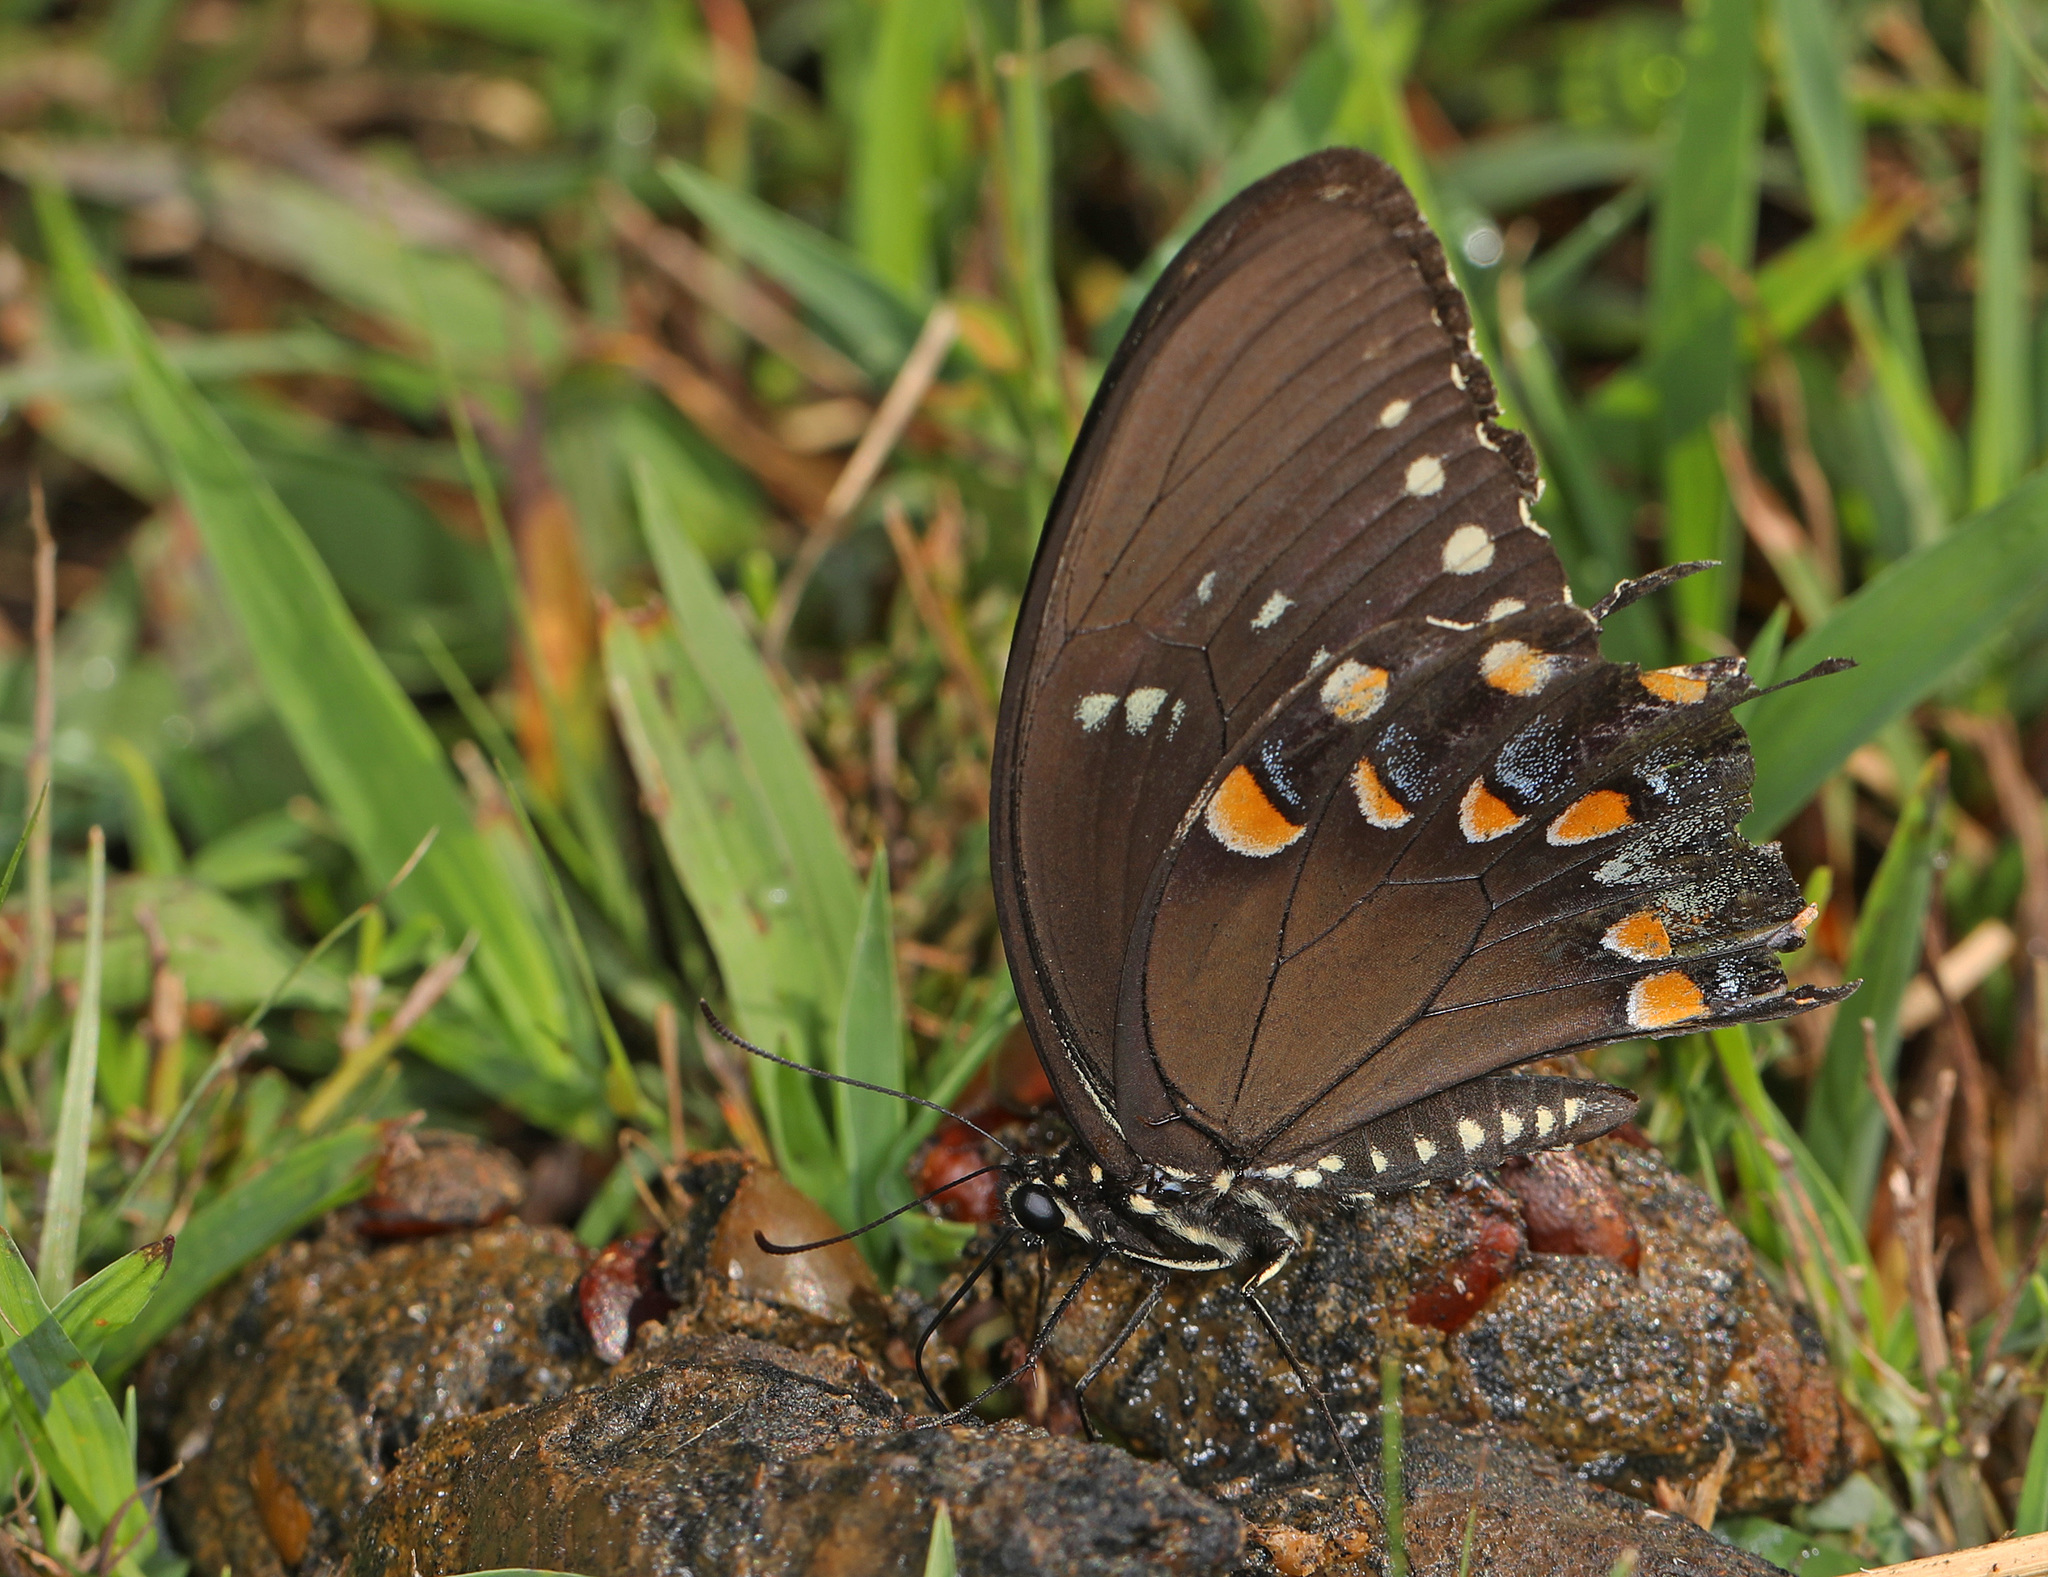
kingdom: Animalia
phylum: Arthropoda
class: Insecta
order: Lepidoptera
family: Papilionidae
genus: Papilio
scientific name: Papilio troilus
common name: Spicebush swallowtail
